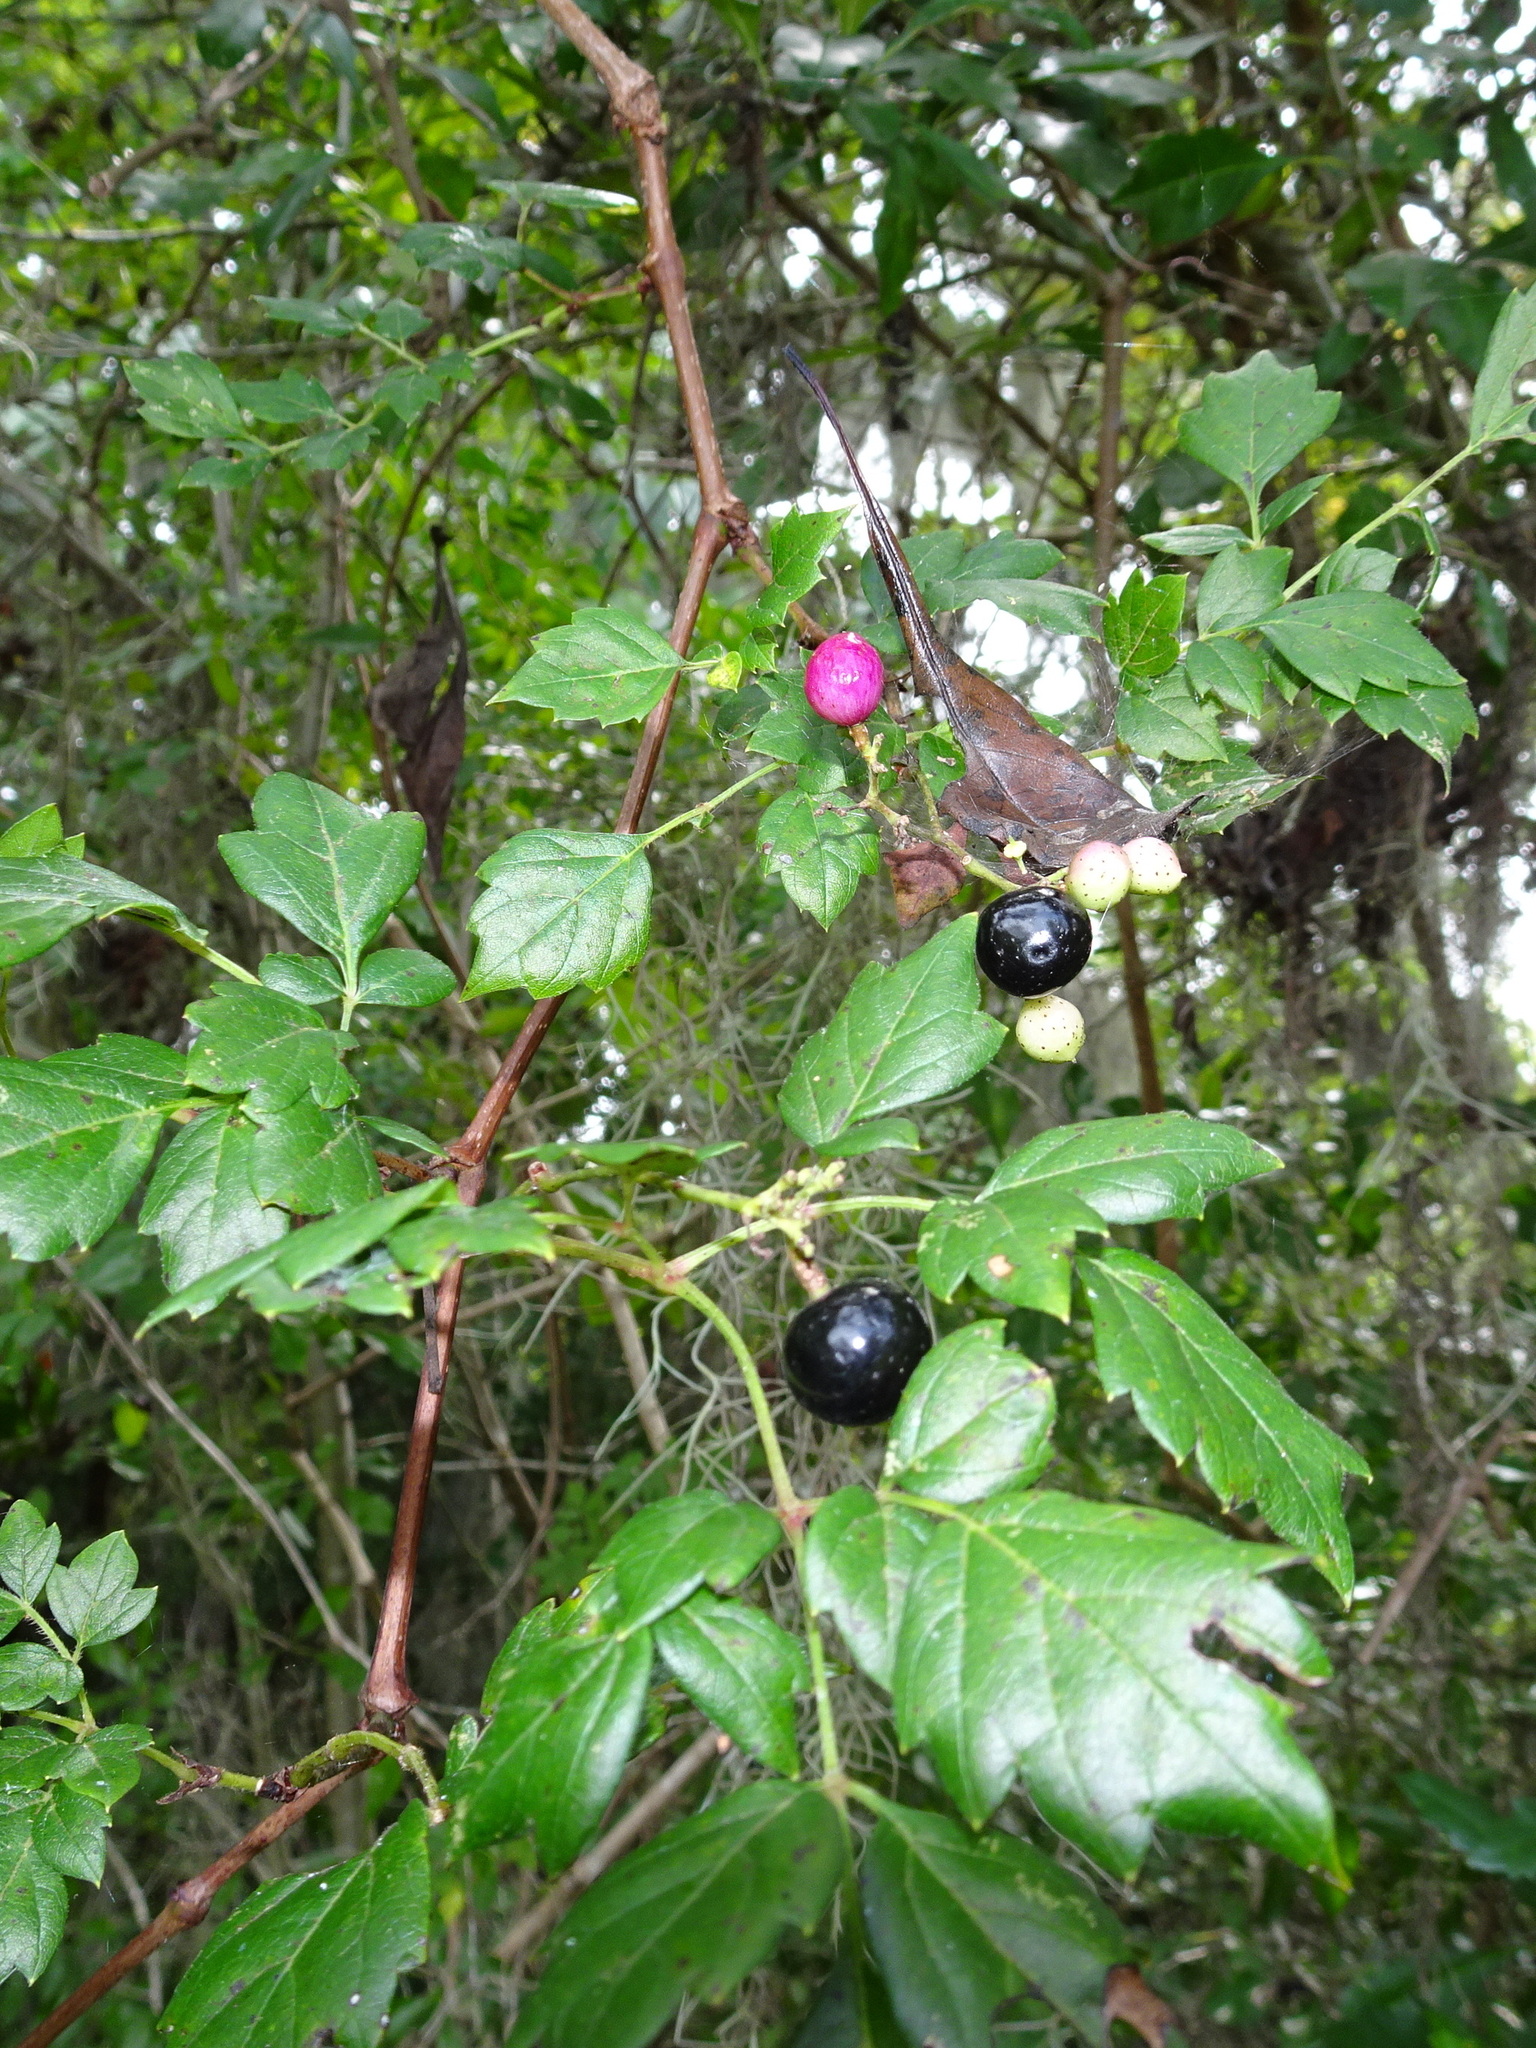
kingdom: Plantae
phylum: Tracheophyta
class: Magnoliopsida
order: Vitales
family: Vitaceae
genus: Nekemias
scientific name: Nekemias arborea
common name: Peppervine
